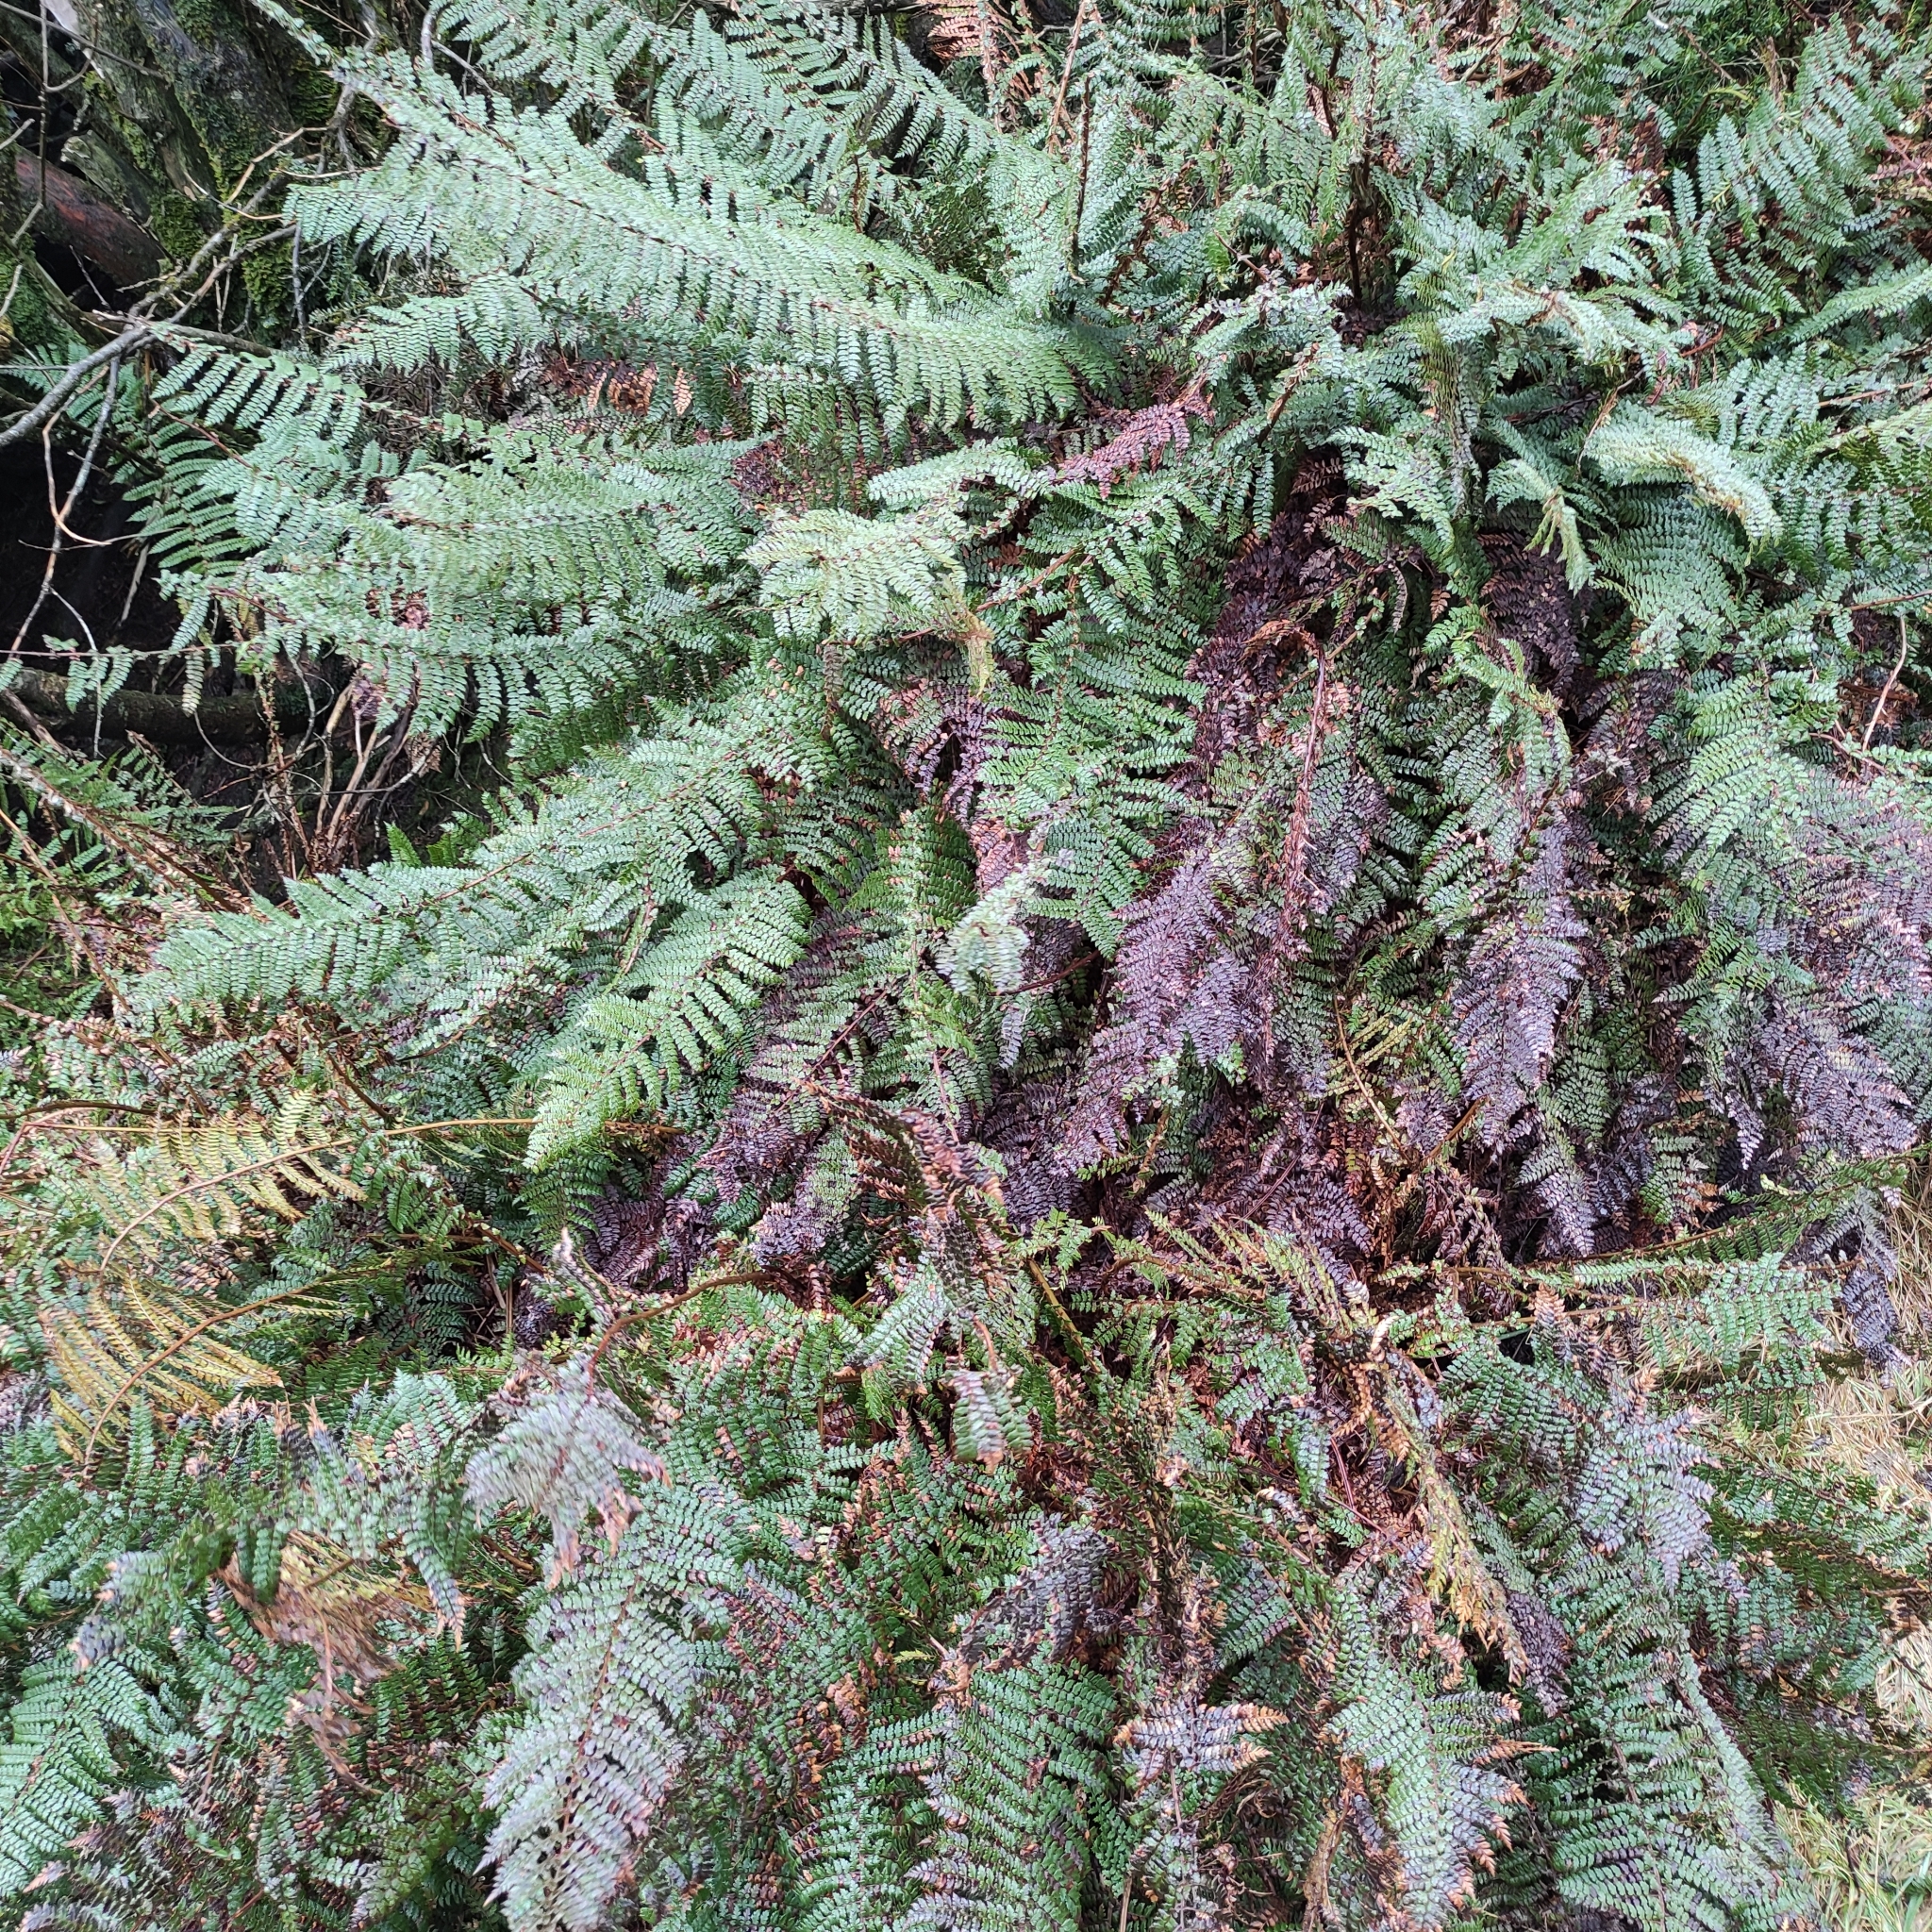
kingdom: Plantae
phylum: Tracheophyta
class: Polypodiopsida
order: Polypodiales
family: Dryopteridaceae
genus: Polystichum
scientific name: Polystichum vestitum
